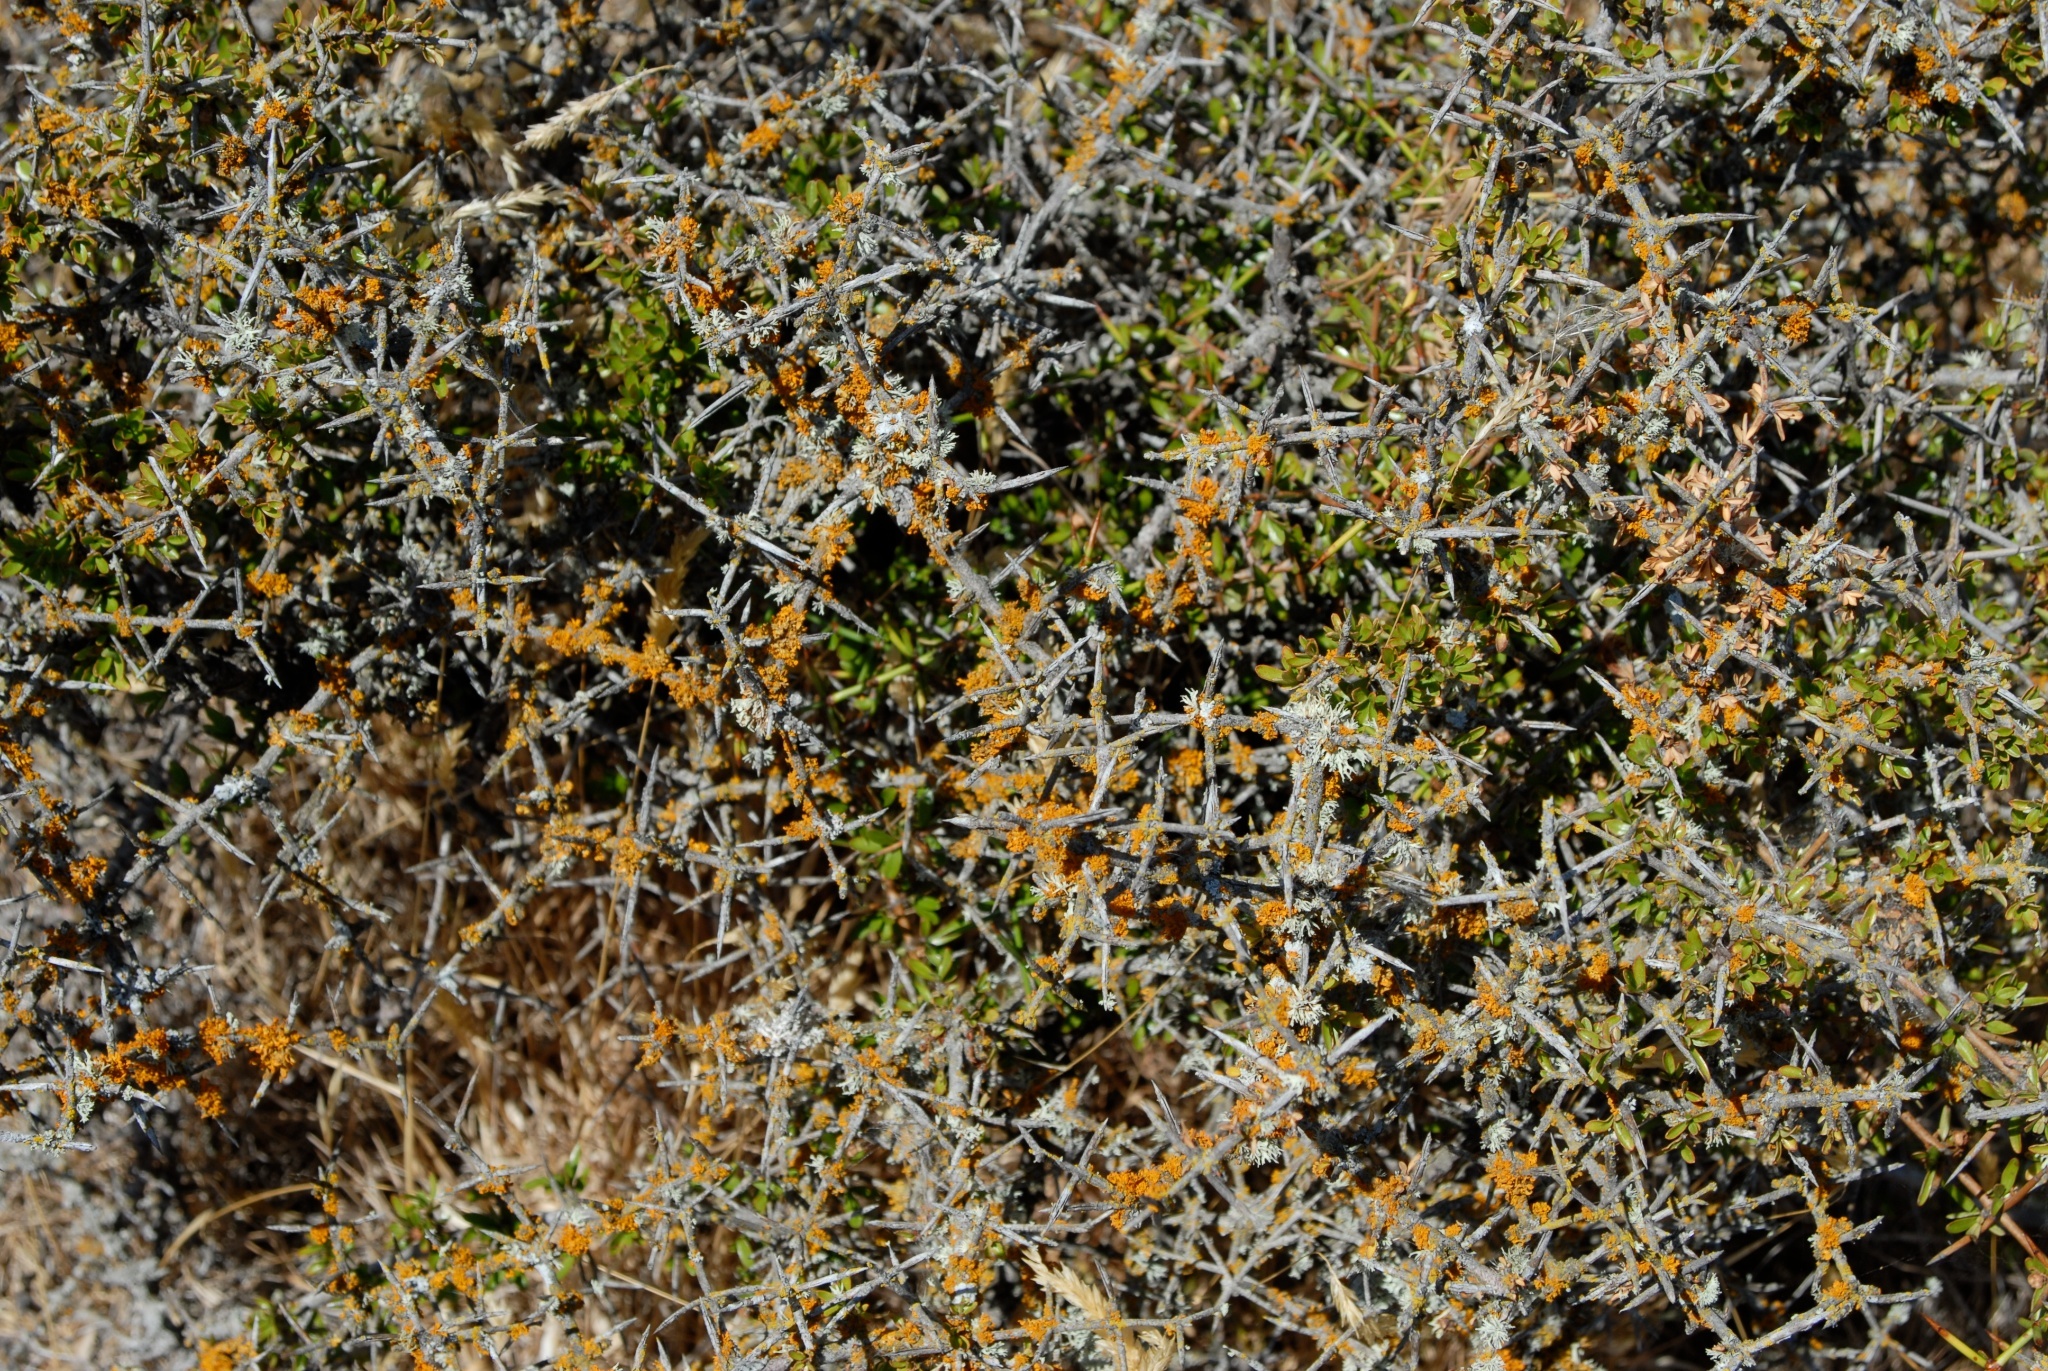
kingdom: Plantae
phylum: Tracheophyta
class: Magnoliopsida
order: Rosales
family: Rhamnaceae
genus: Discaria
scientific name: Discaria toumatou
